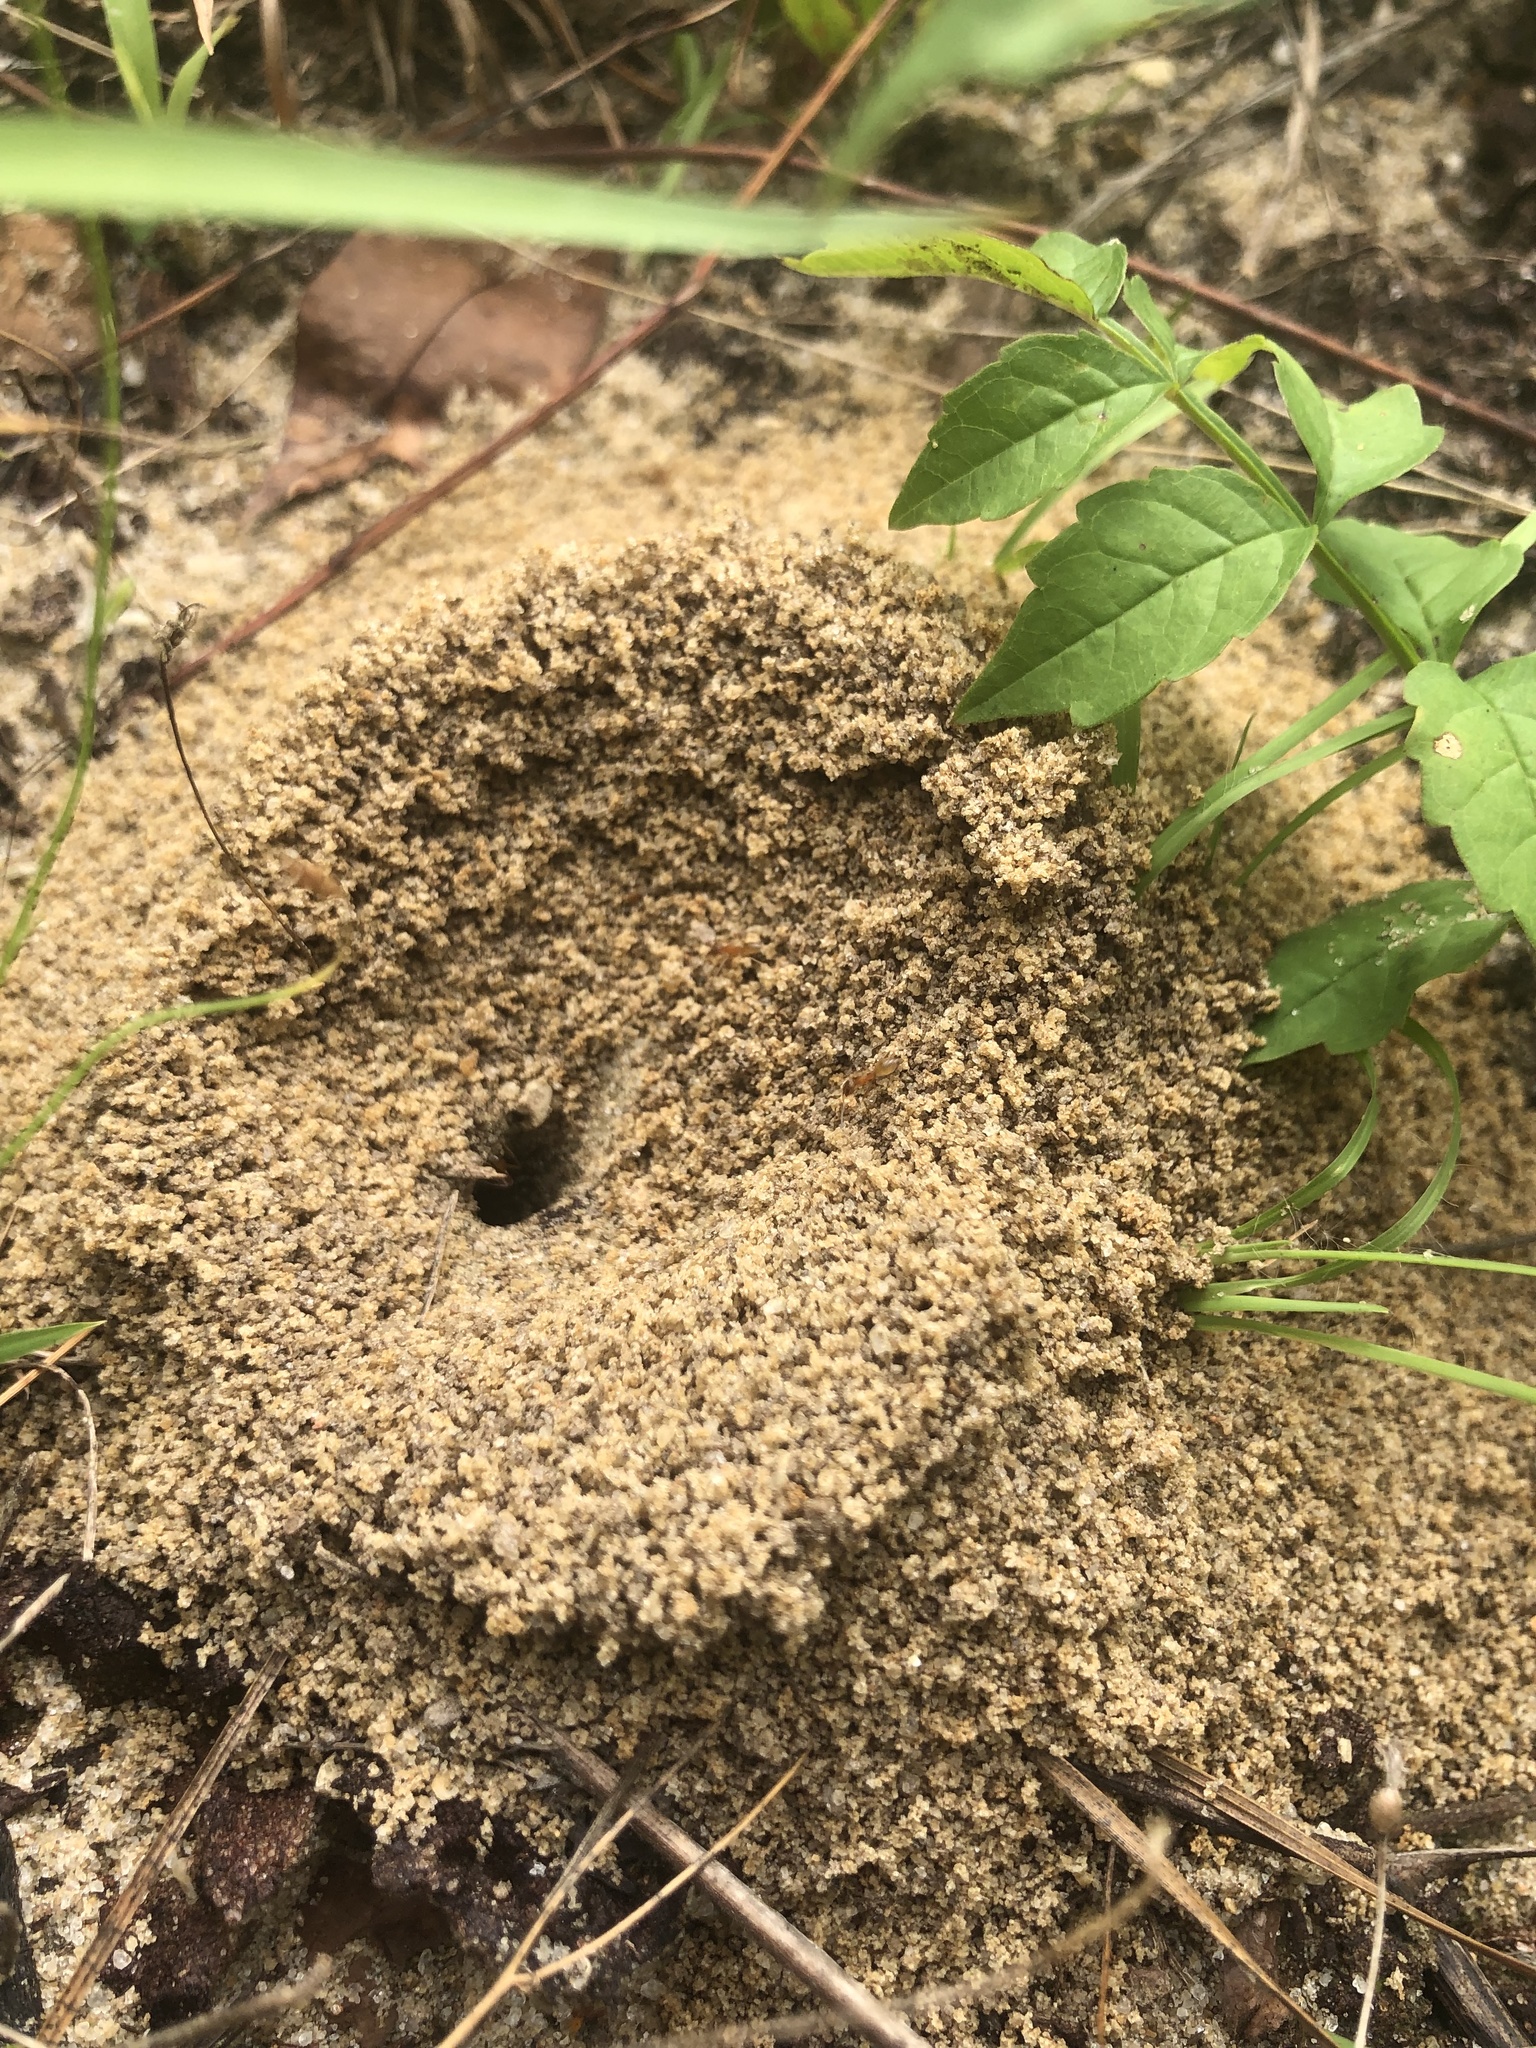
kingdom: Animalia
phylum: Arthropoda
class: Insecta
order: Hymenoptera
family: Formicidae
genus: Dorymyrmex
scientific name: Dorymyrmex bureni
